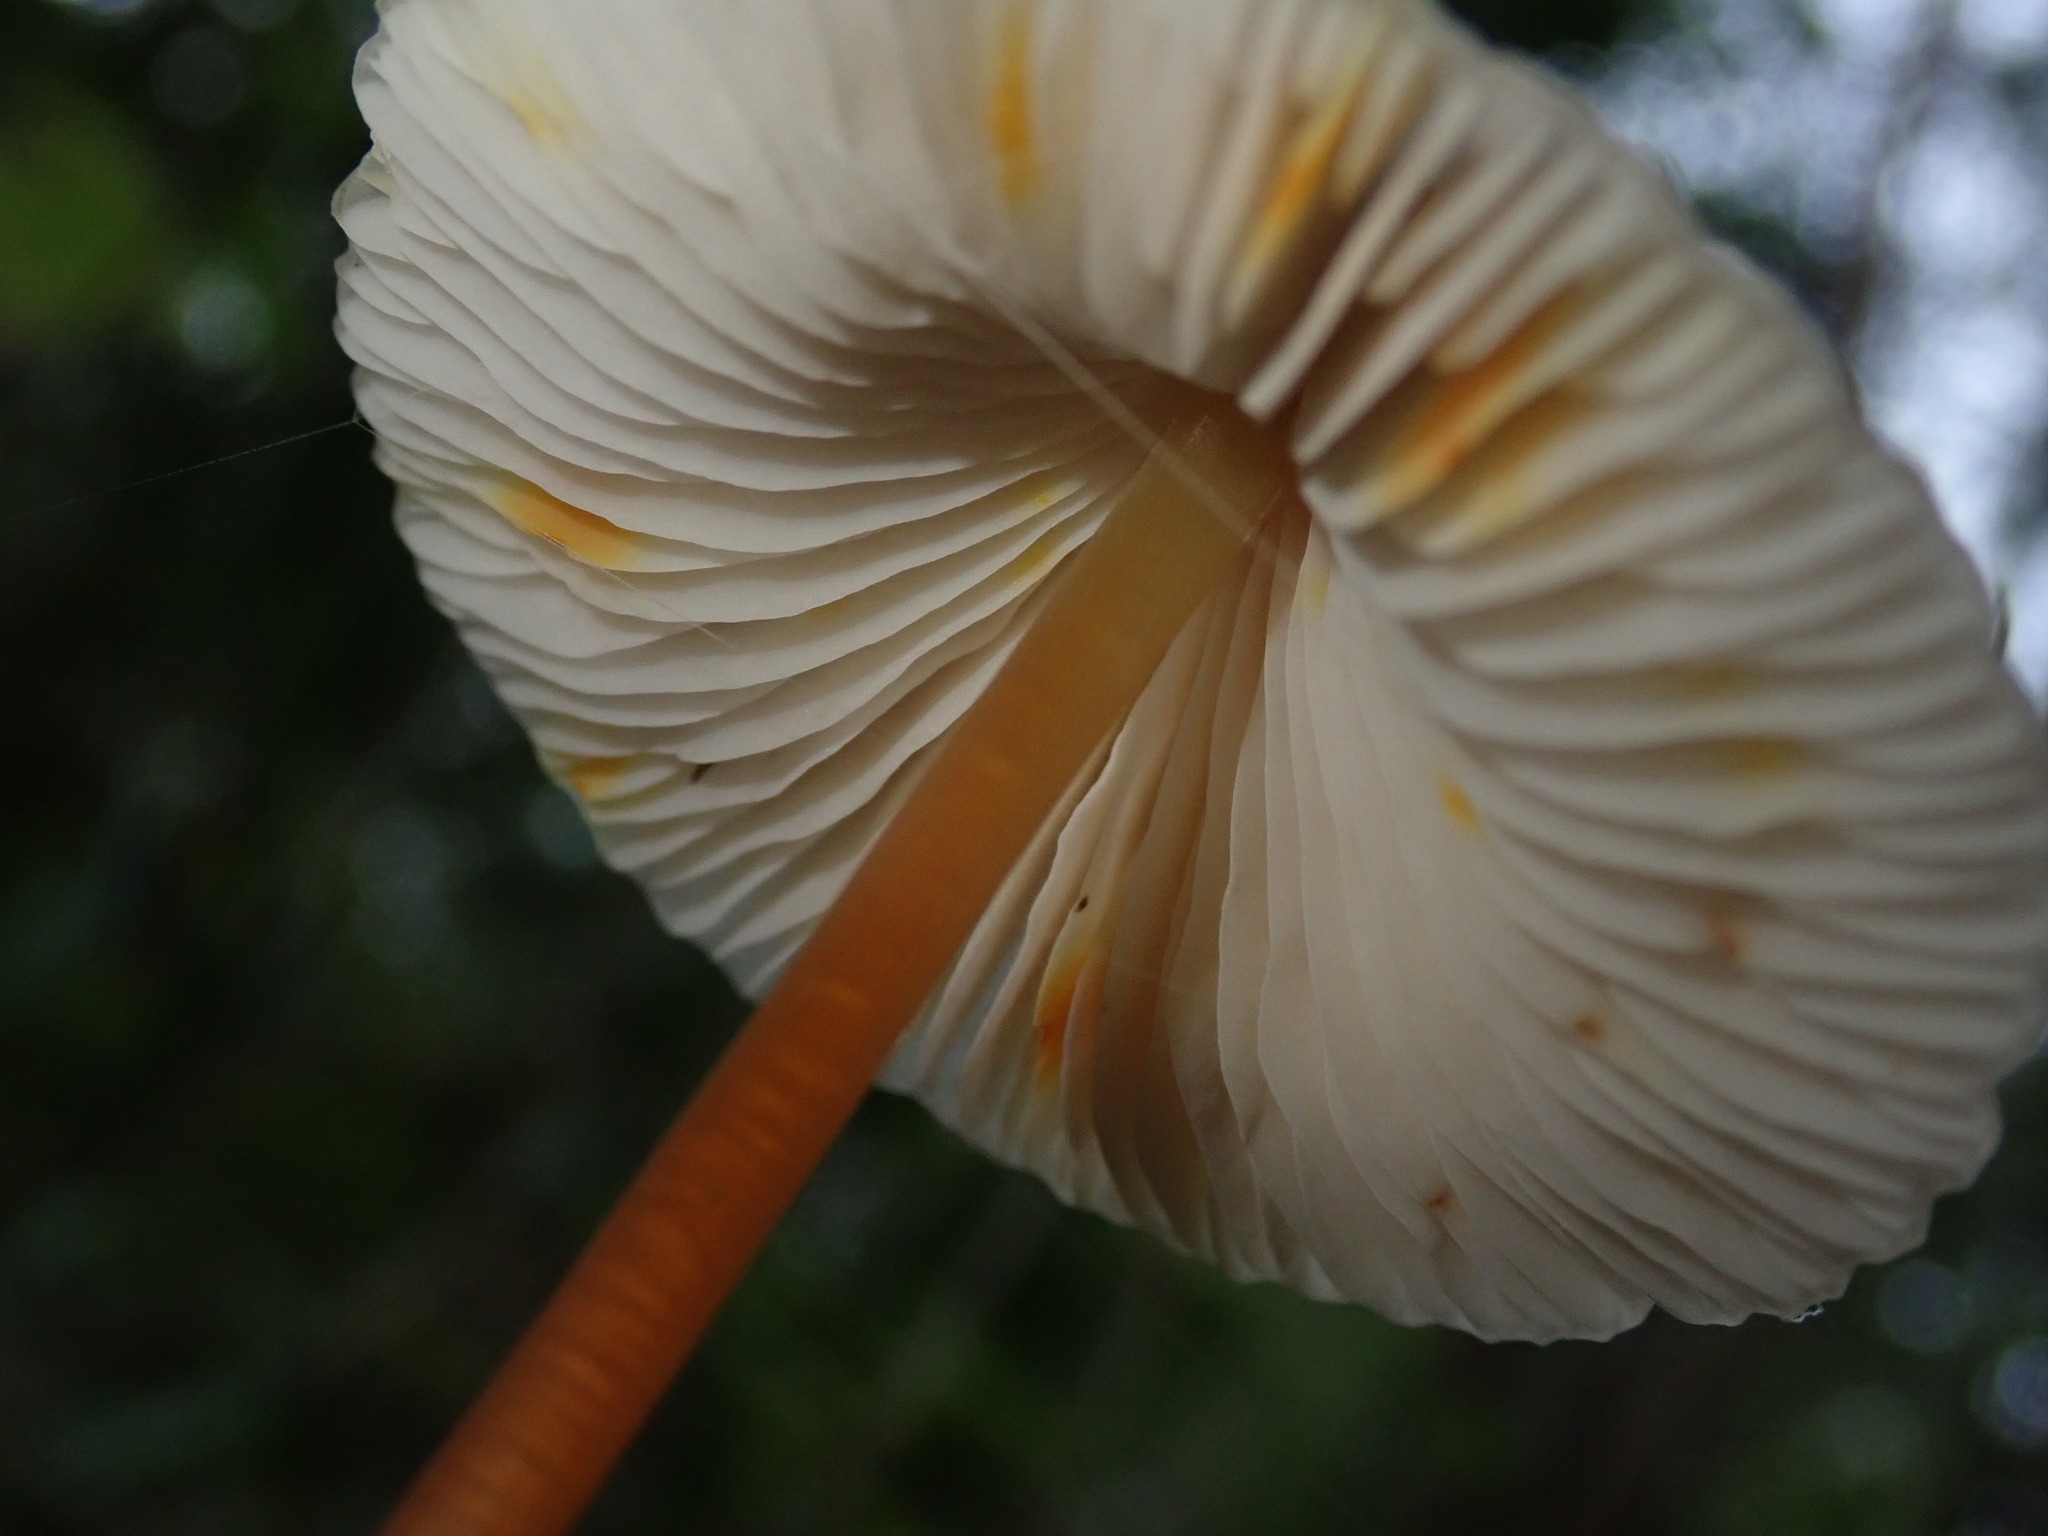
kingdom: Fungi
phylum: Basidiomycota
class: Agaricomycetes
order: Agaricales
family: Mycenaceae
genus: Mycena
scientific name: Mycena crocata
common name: Saffrondrop bonnet
